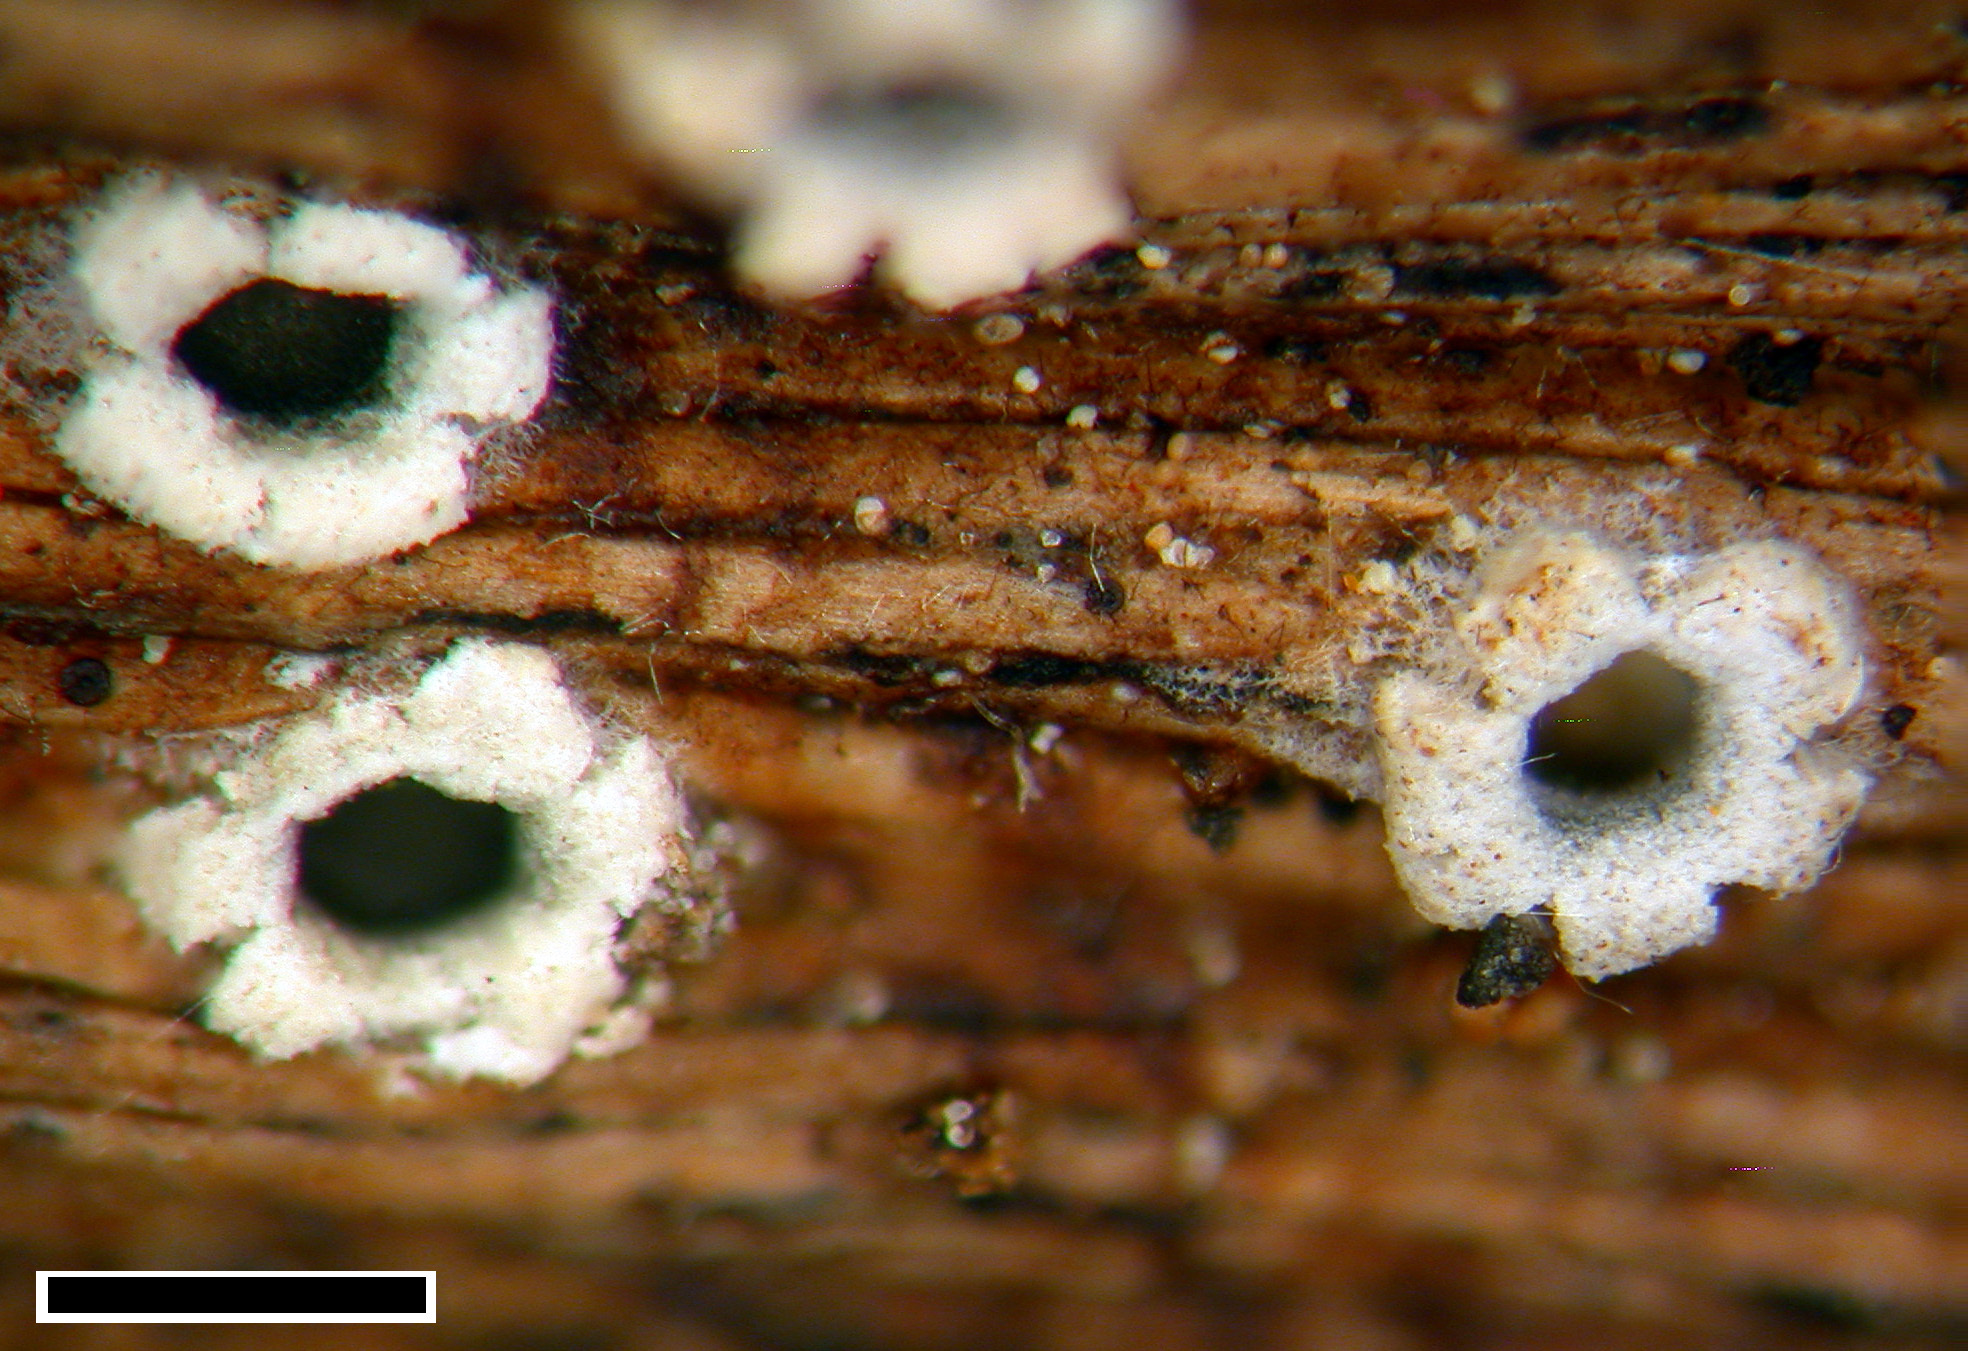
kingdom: Fungi
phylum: Ascomycota
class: Lecanoromycetes
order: Ostropales
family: Stictidaceae
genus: Stictis
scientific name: Stictis radiata
